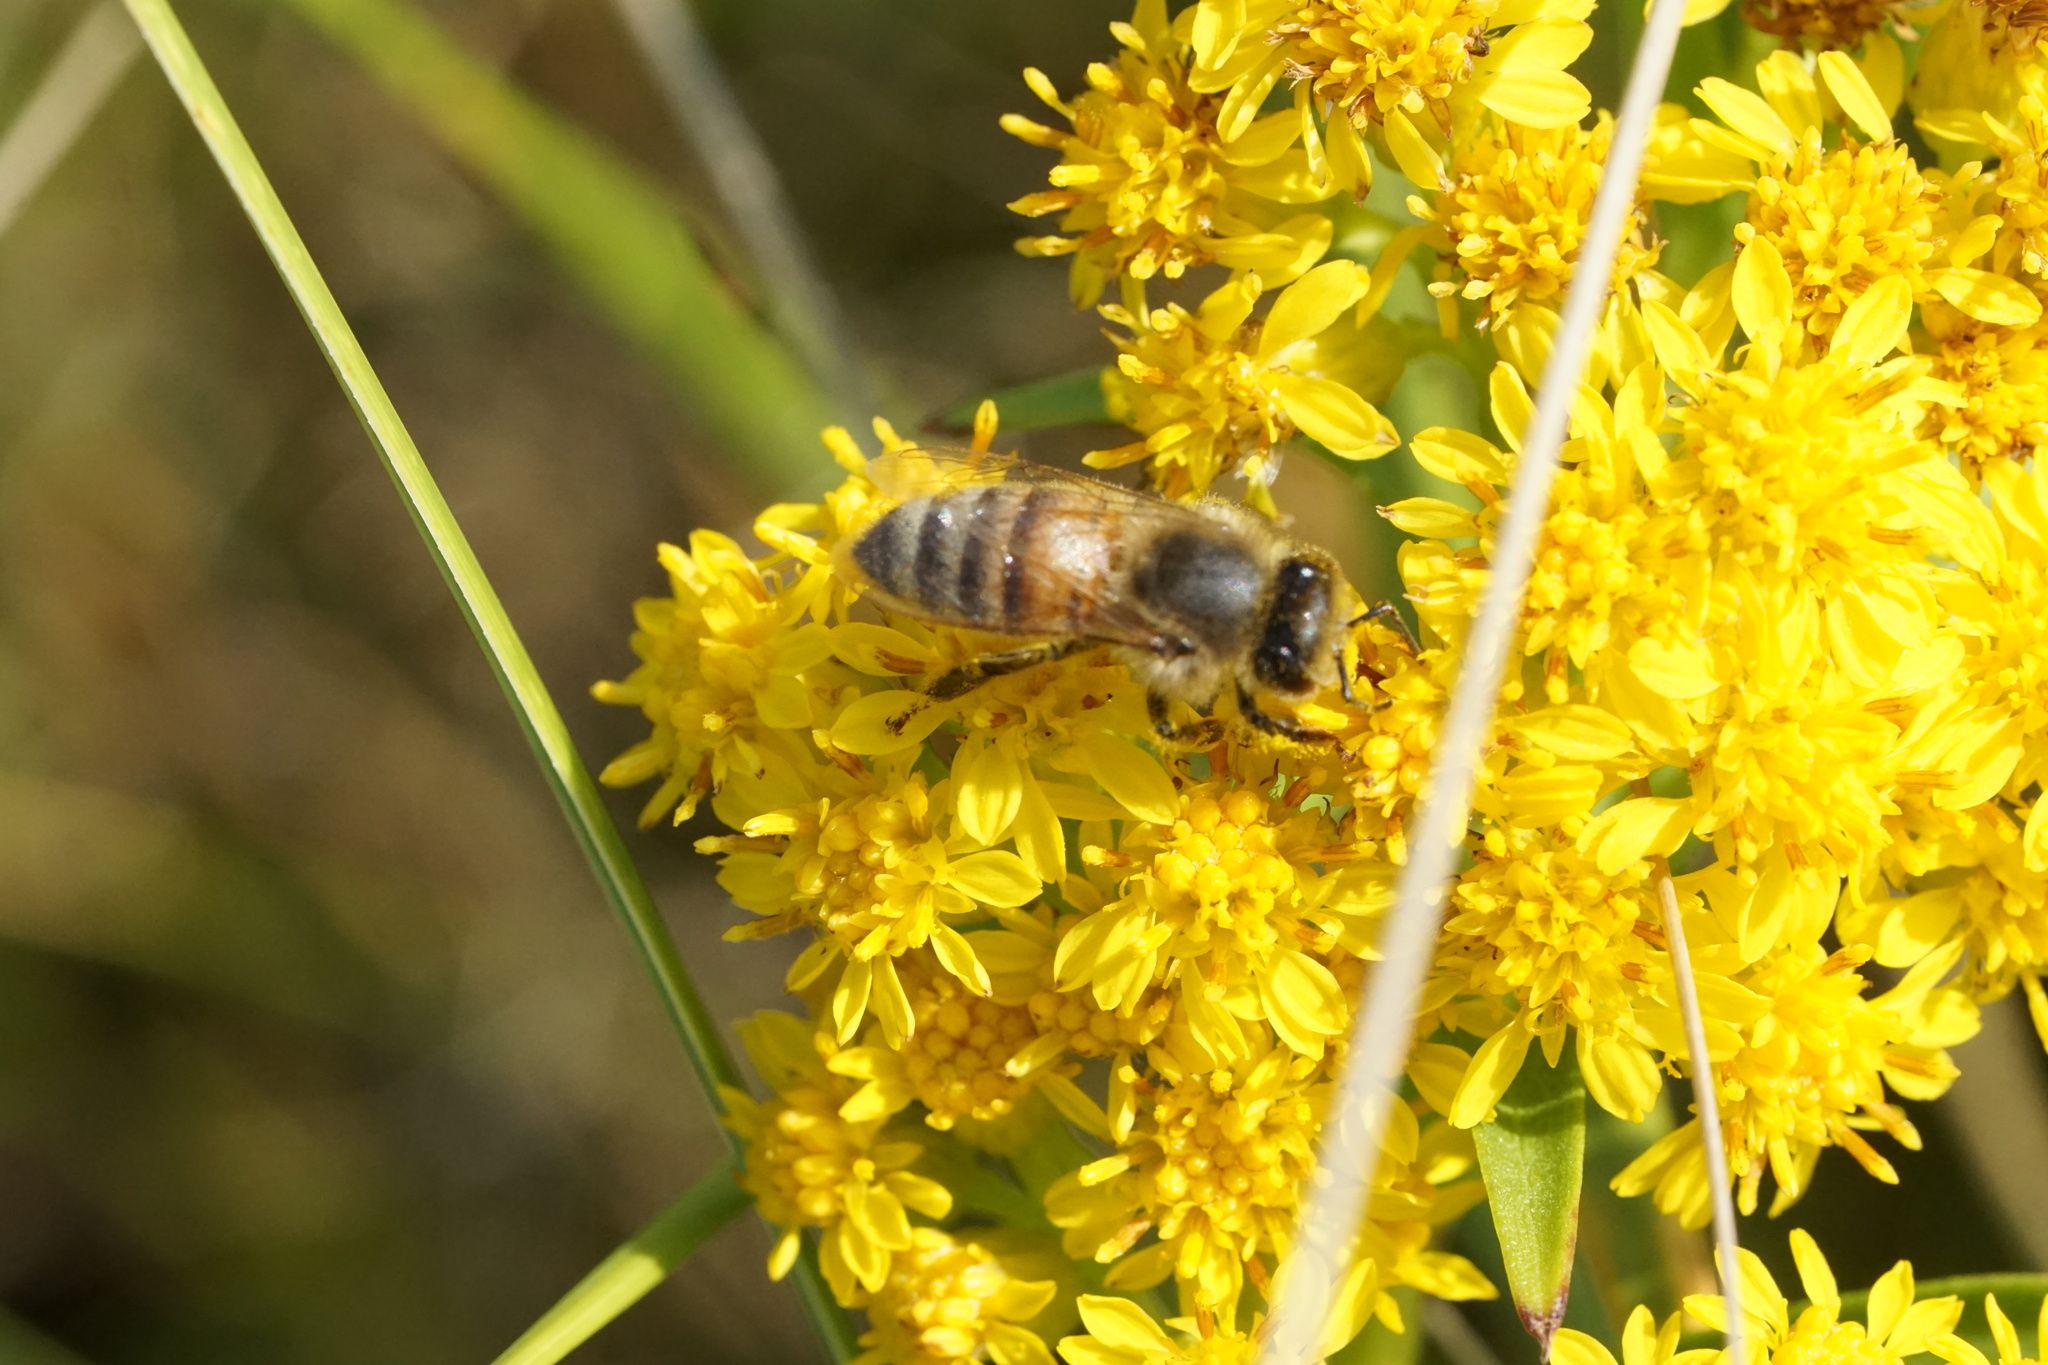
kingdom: Animalia
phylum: Arthropoda
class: Insecta
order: Hymenoptera
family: Apidae
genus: Apis
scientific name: Apis mellifera
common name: Honey bee
